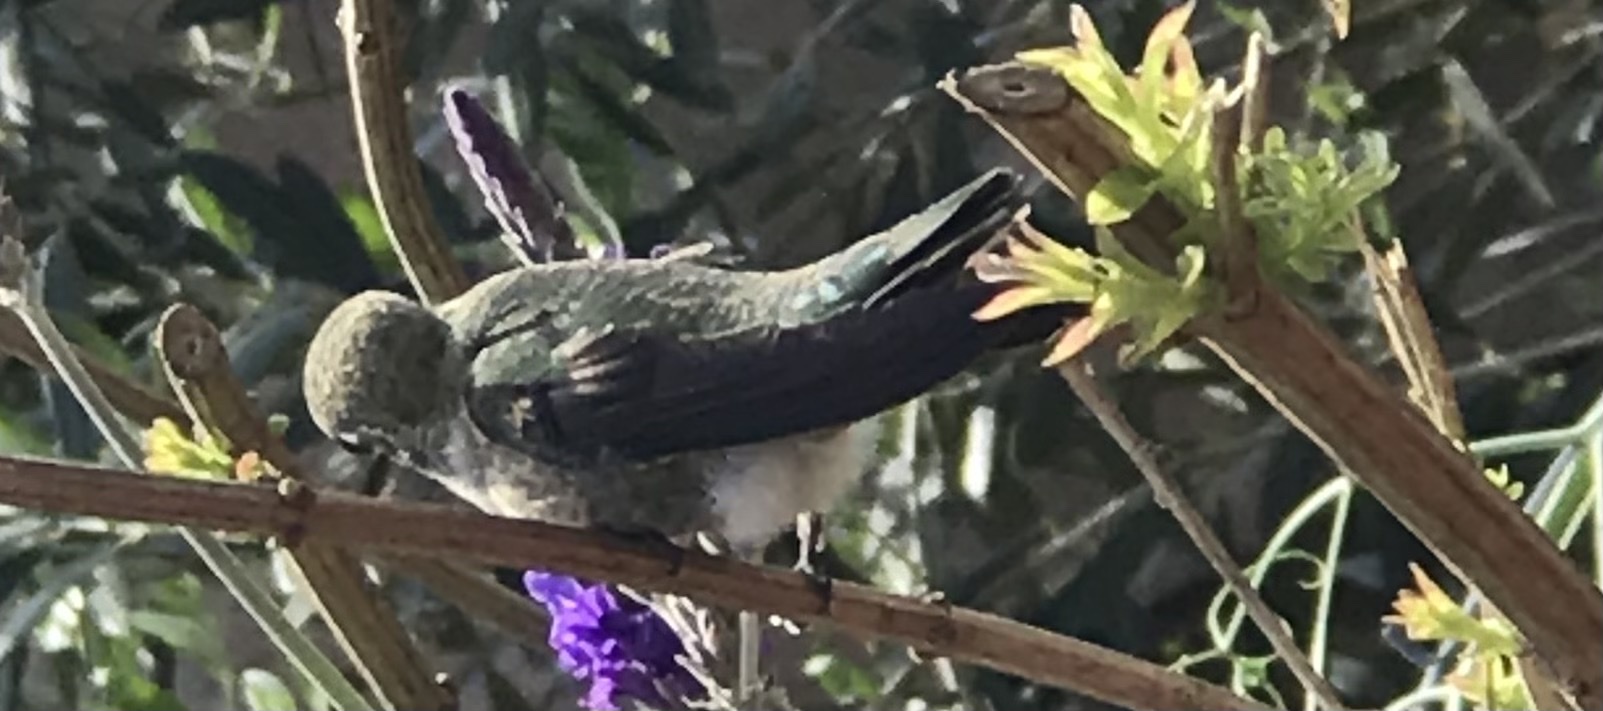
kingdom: Animalia
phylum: Chordata
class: Aves
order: Apodiformes
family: Trochilidae
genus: Calypte
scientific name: Calypte anna
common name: Anna's hummingbird
